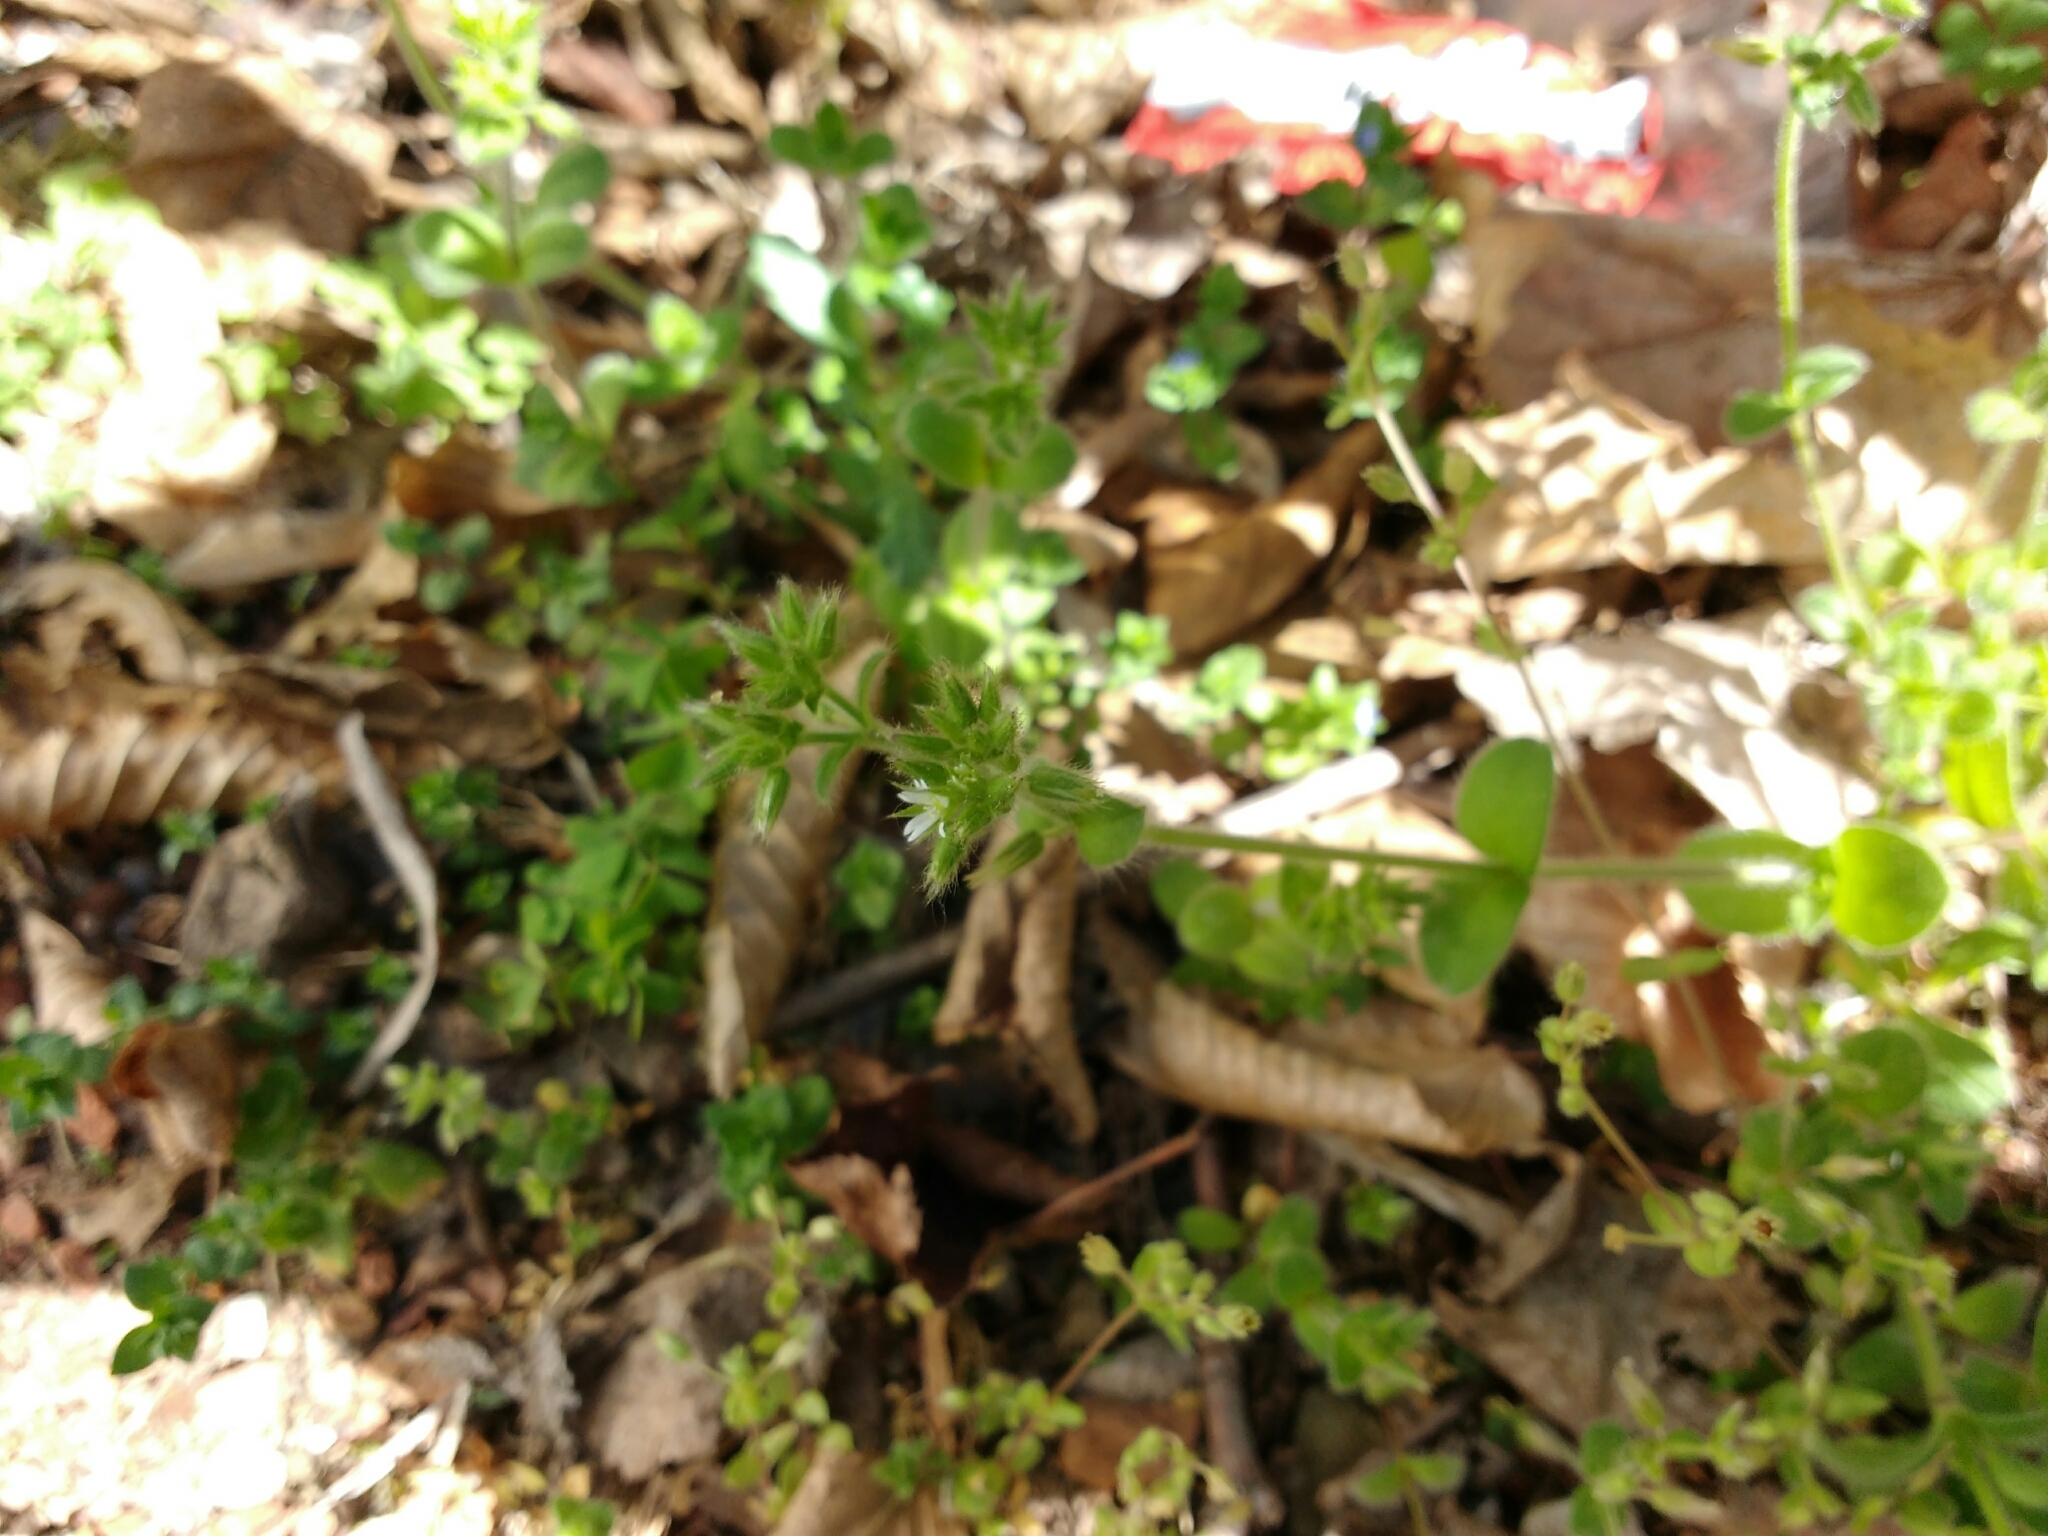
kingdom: Plantae
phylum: Tracheophyta
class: Magnoliopsida
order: Caryophyllales
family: Caryophyllaceae
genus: Cerastium
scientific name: Cerastium glomeratum
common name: Sticky chickweed
